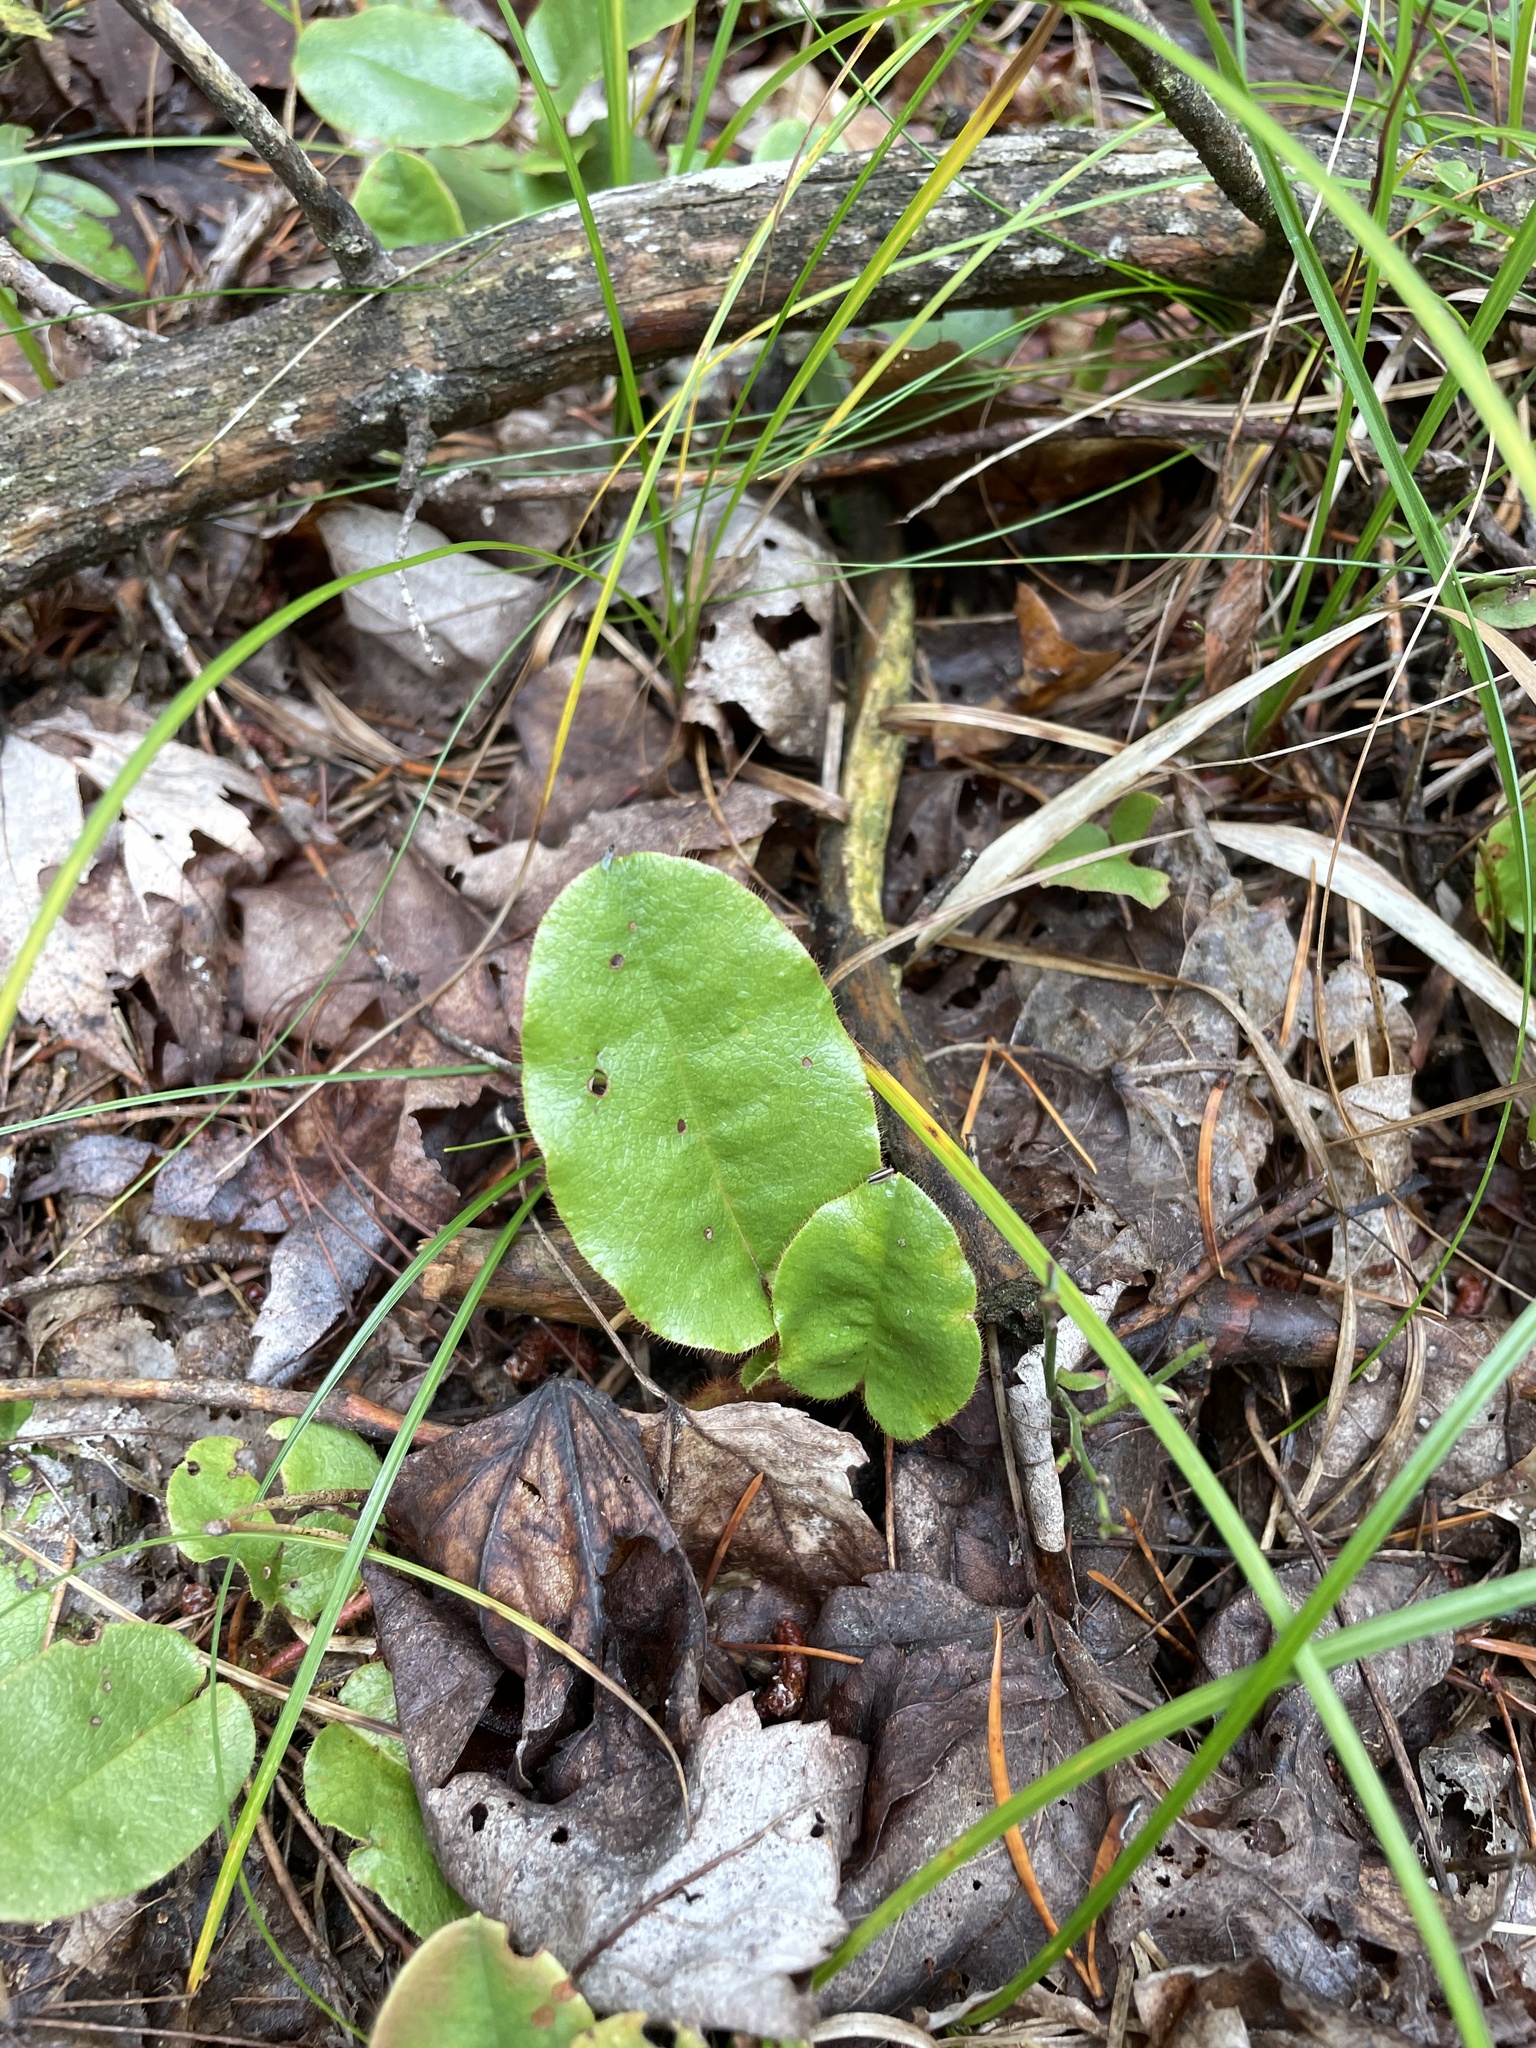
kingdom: Plantae
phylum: Tracheophyta
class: Magnoliopsida
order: Ericales
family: Ericaceae
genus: Epigaea
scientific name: Epigaea repens
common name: Gravelroot
